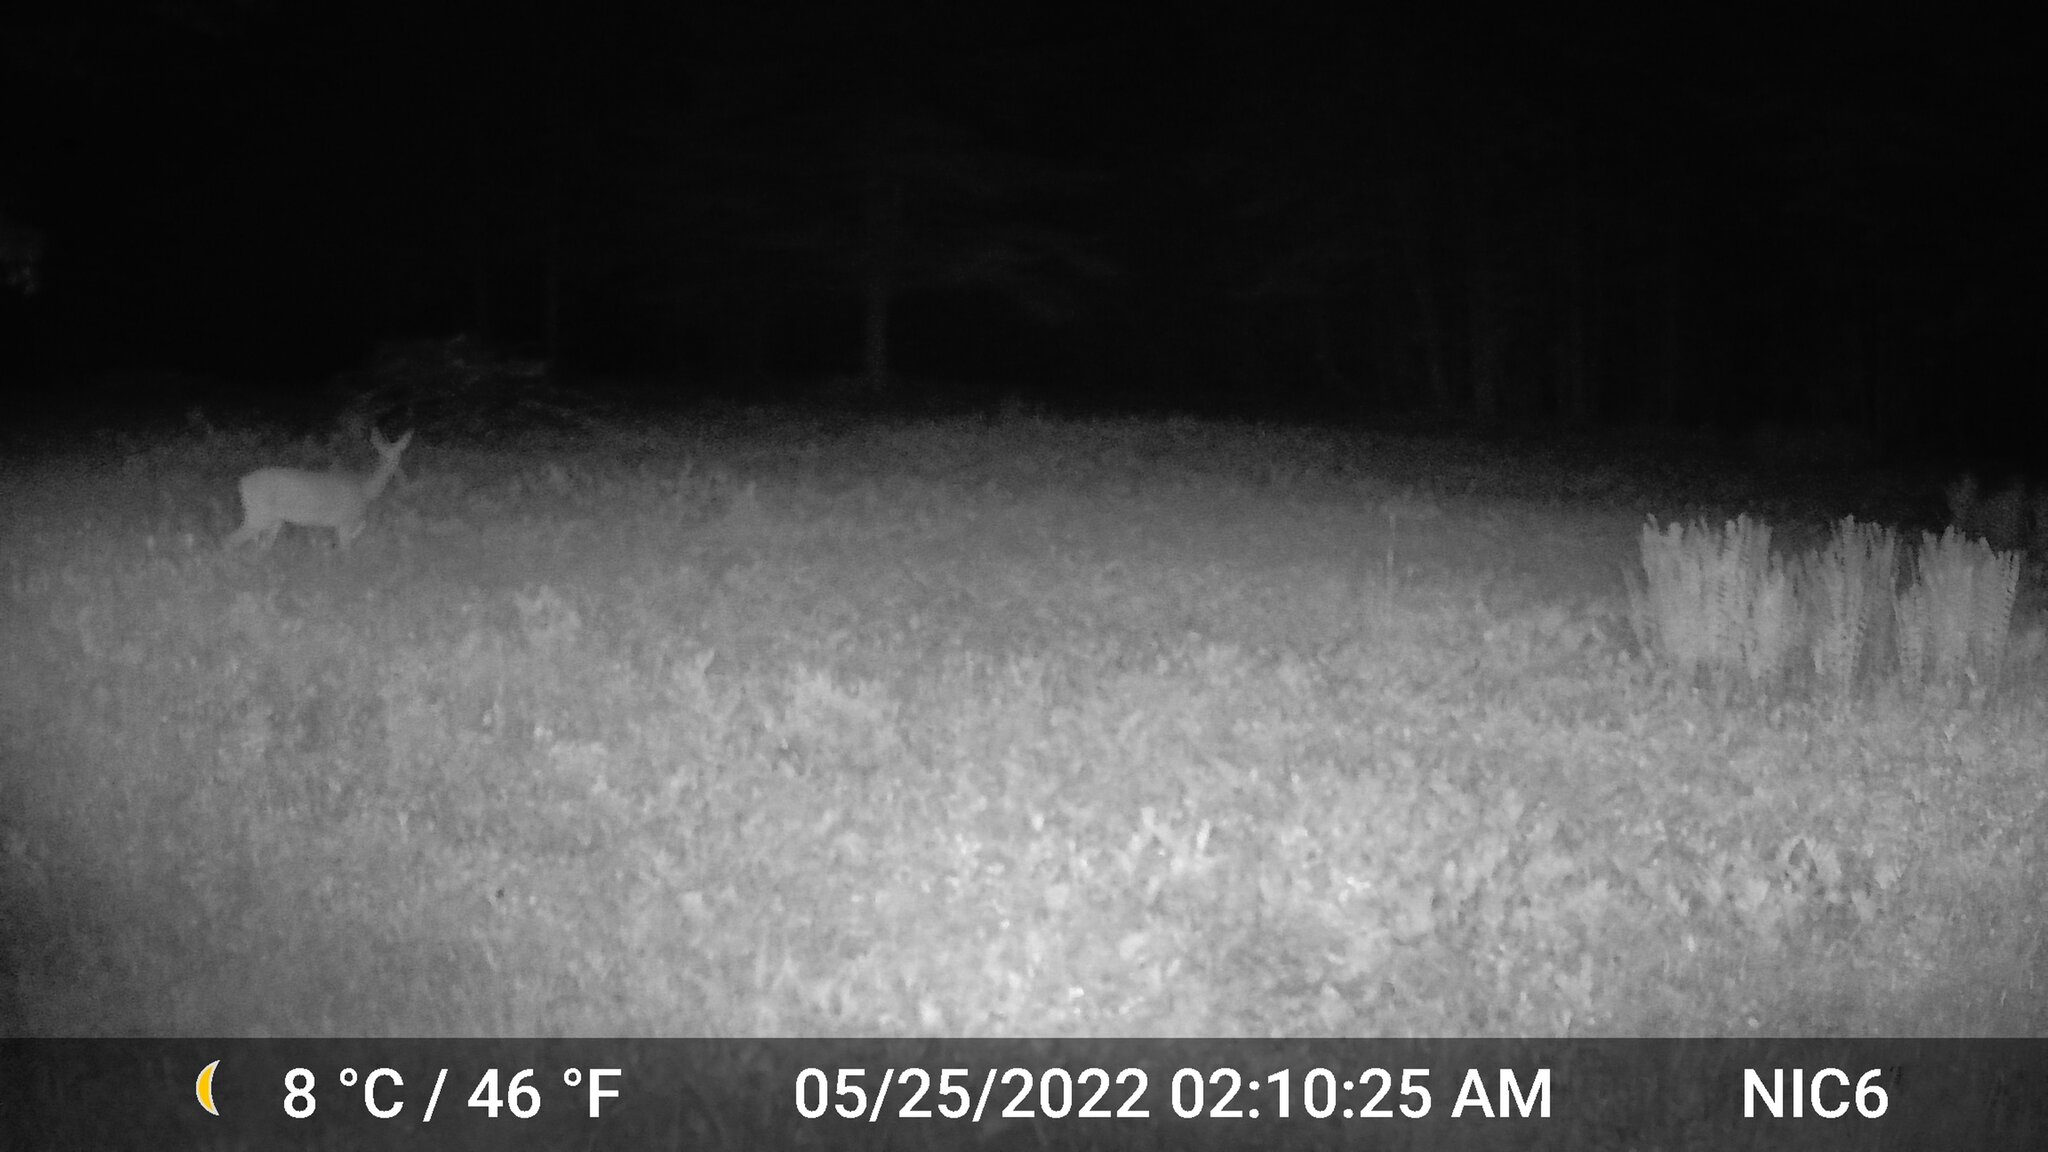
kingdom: Animalia
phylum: Chordata
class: Mammalia
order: Artiodactyla
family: Cervidae
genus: Odocoileus
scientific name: Odocoileus virginianus
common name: White-tailed deer
